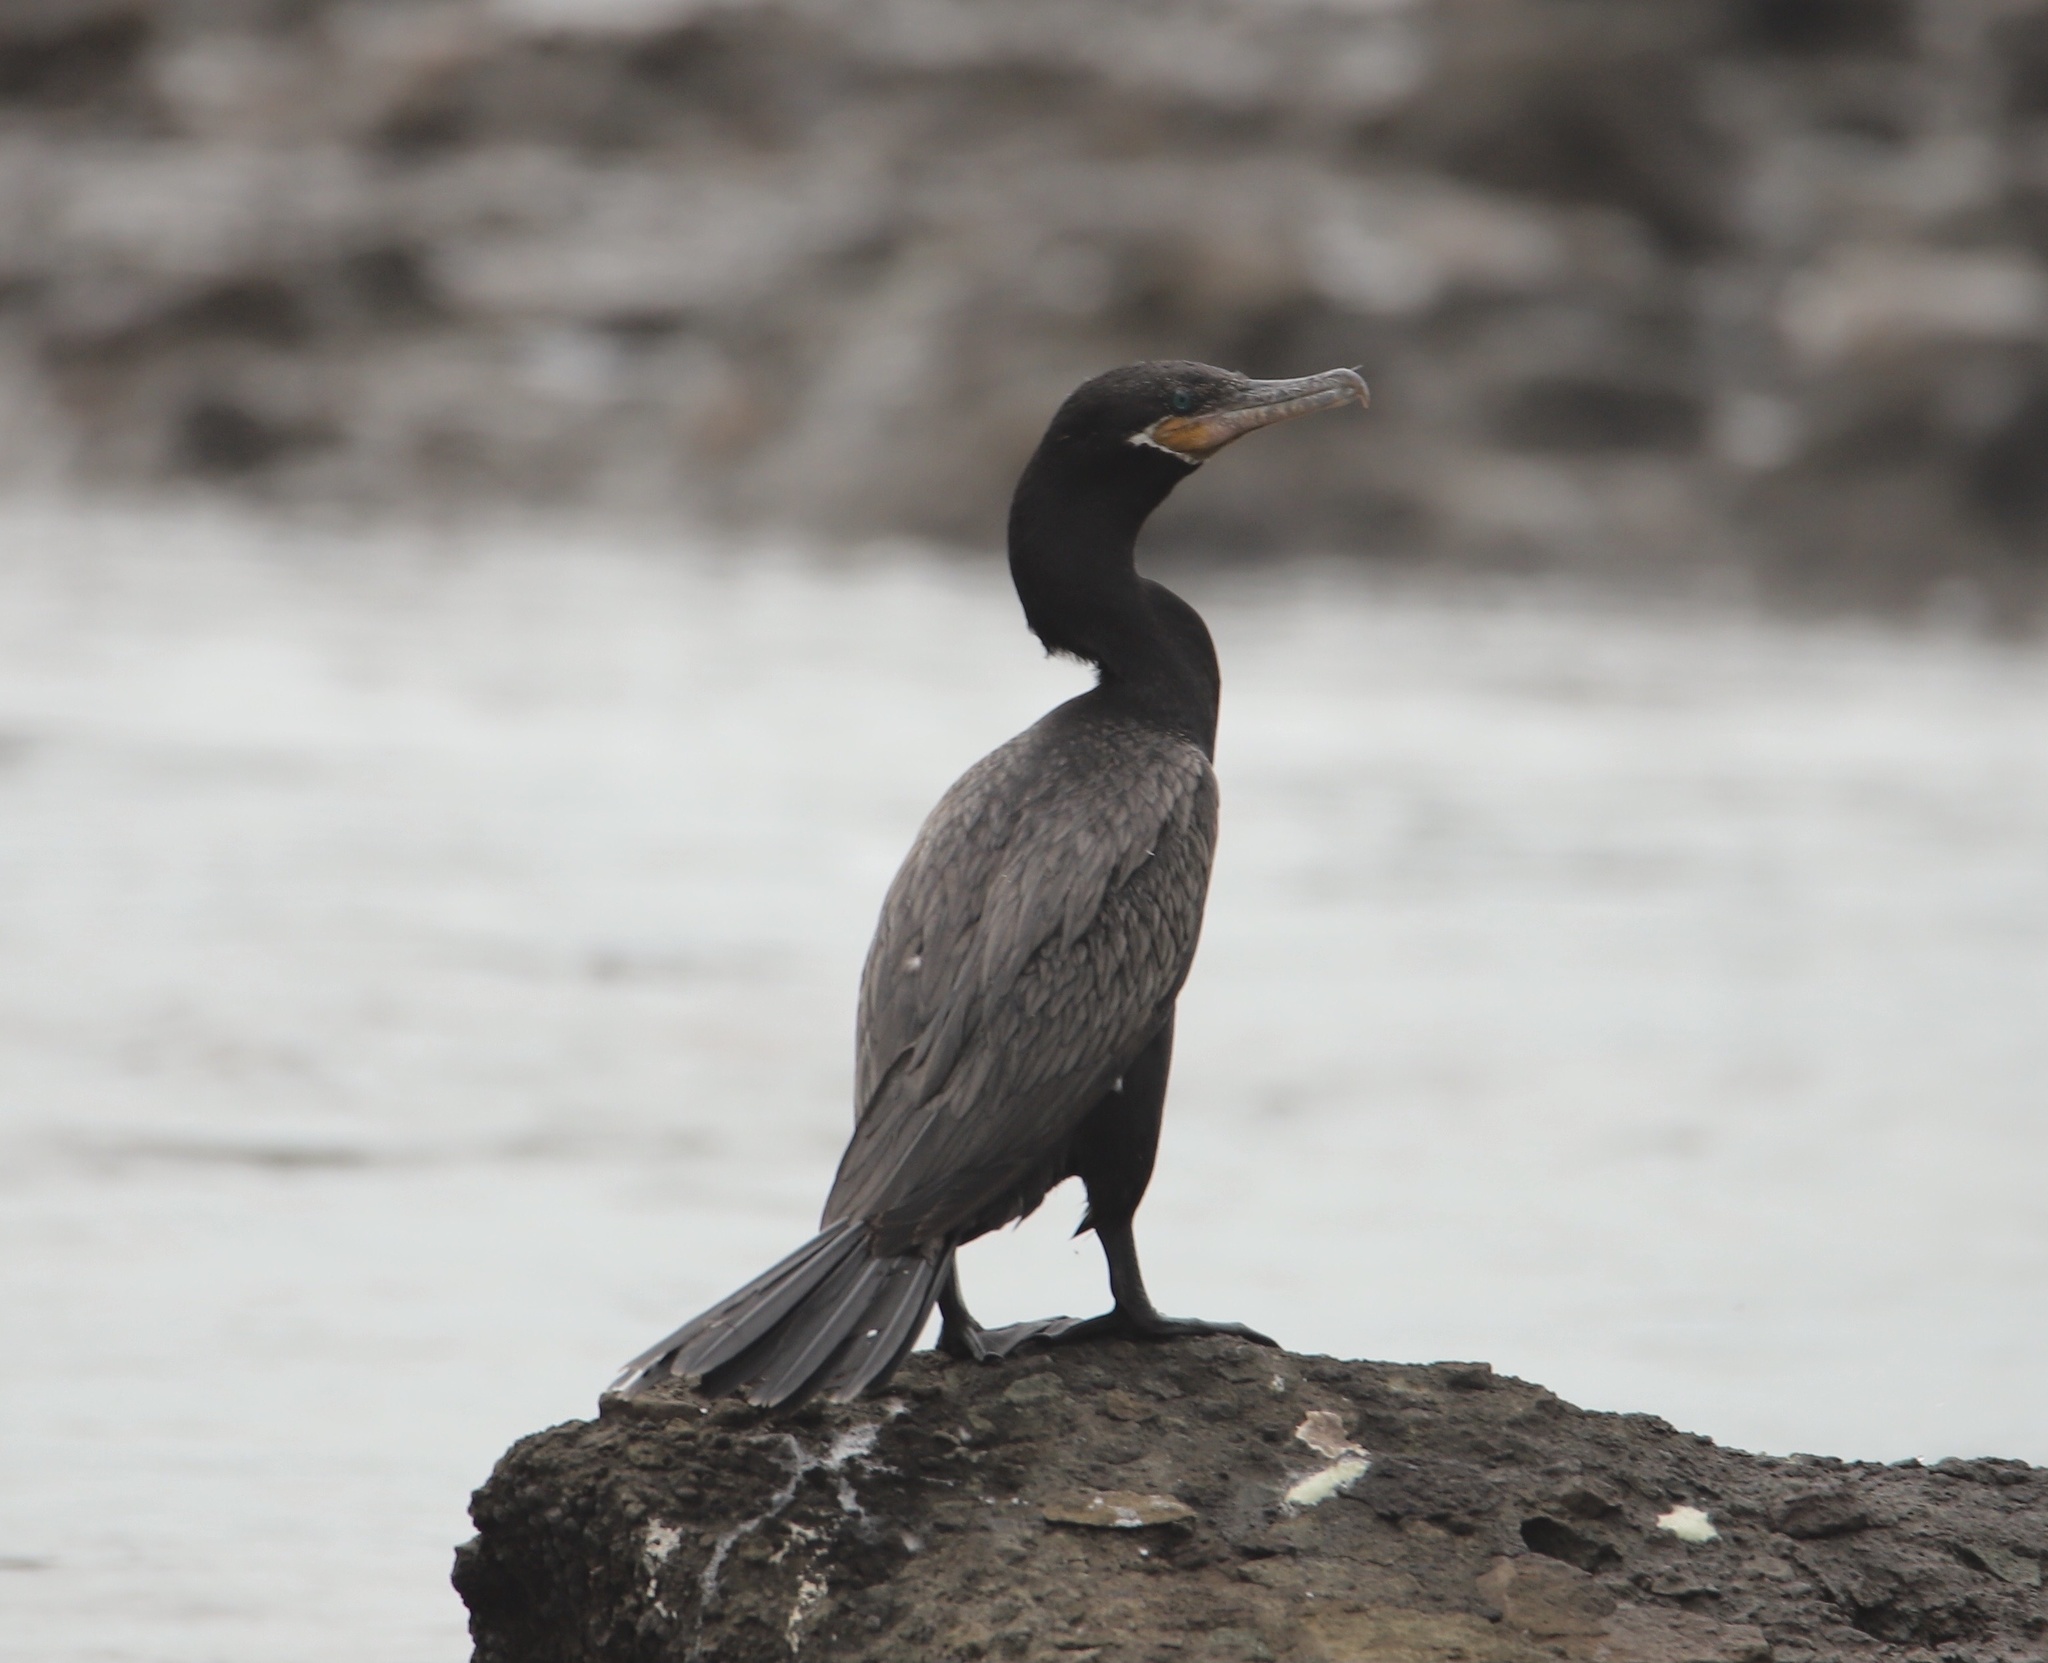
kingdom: Animalia
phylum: Chordata
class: Aves
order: Suliformes
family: Phalacrocoracidae
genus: Phalacrocorax
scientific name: Phalacrocorax brasilianus
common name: Neotropic cormorant
